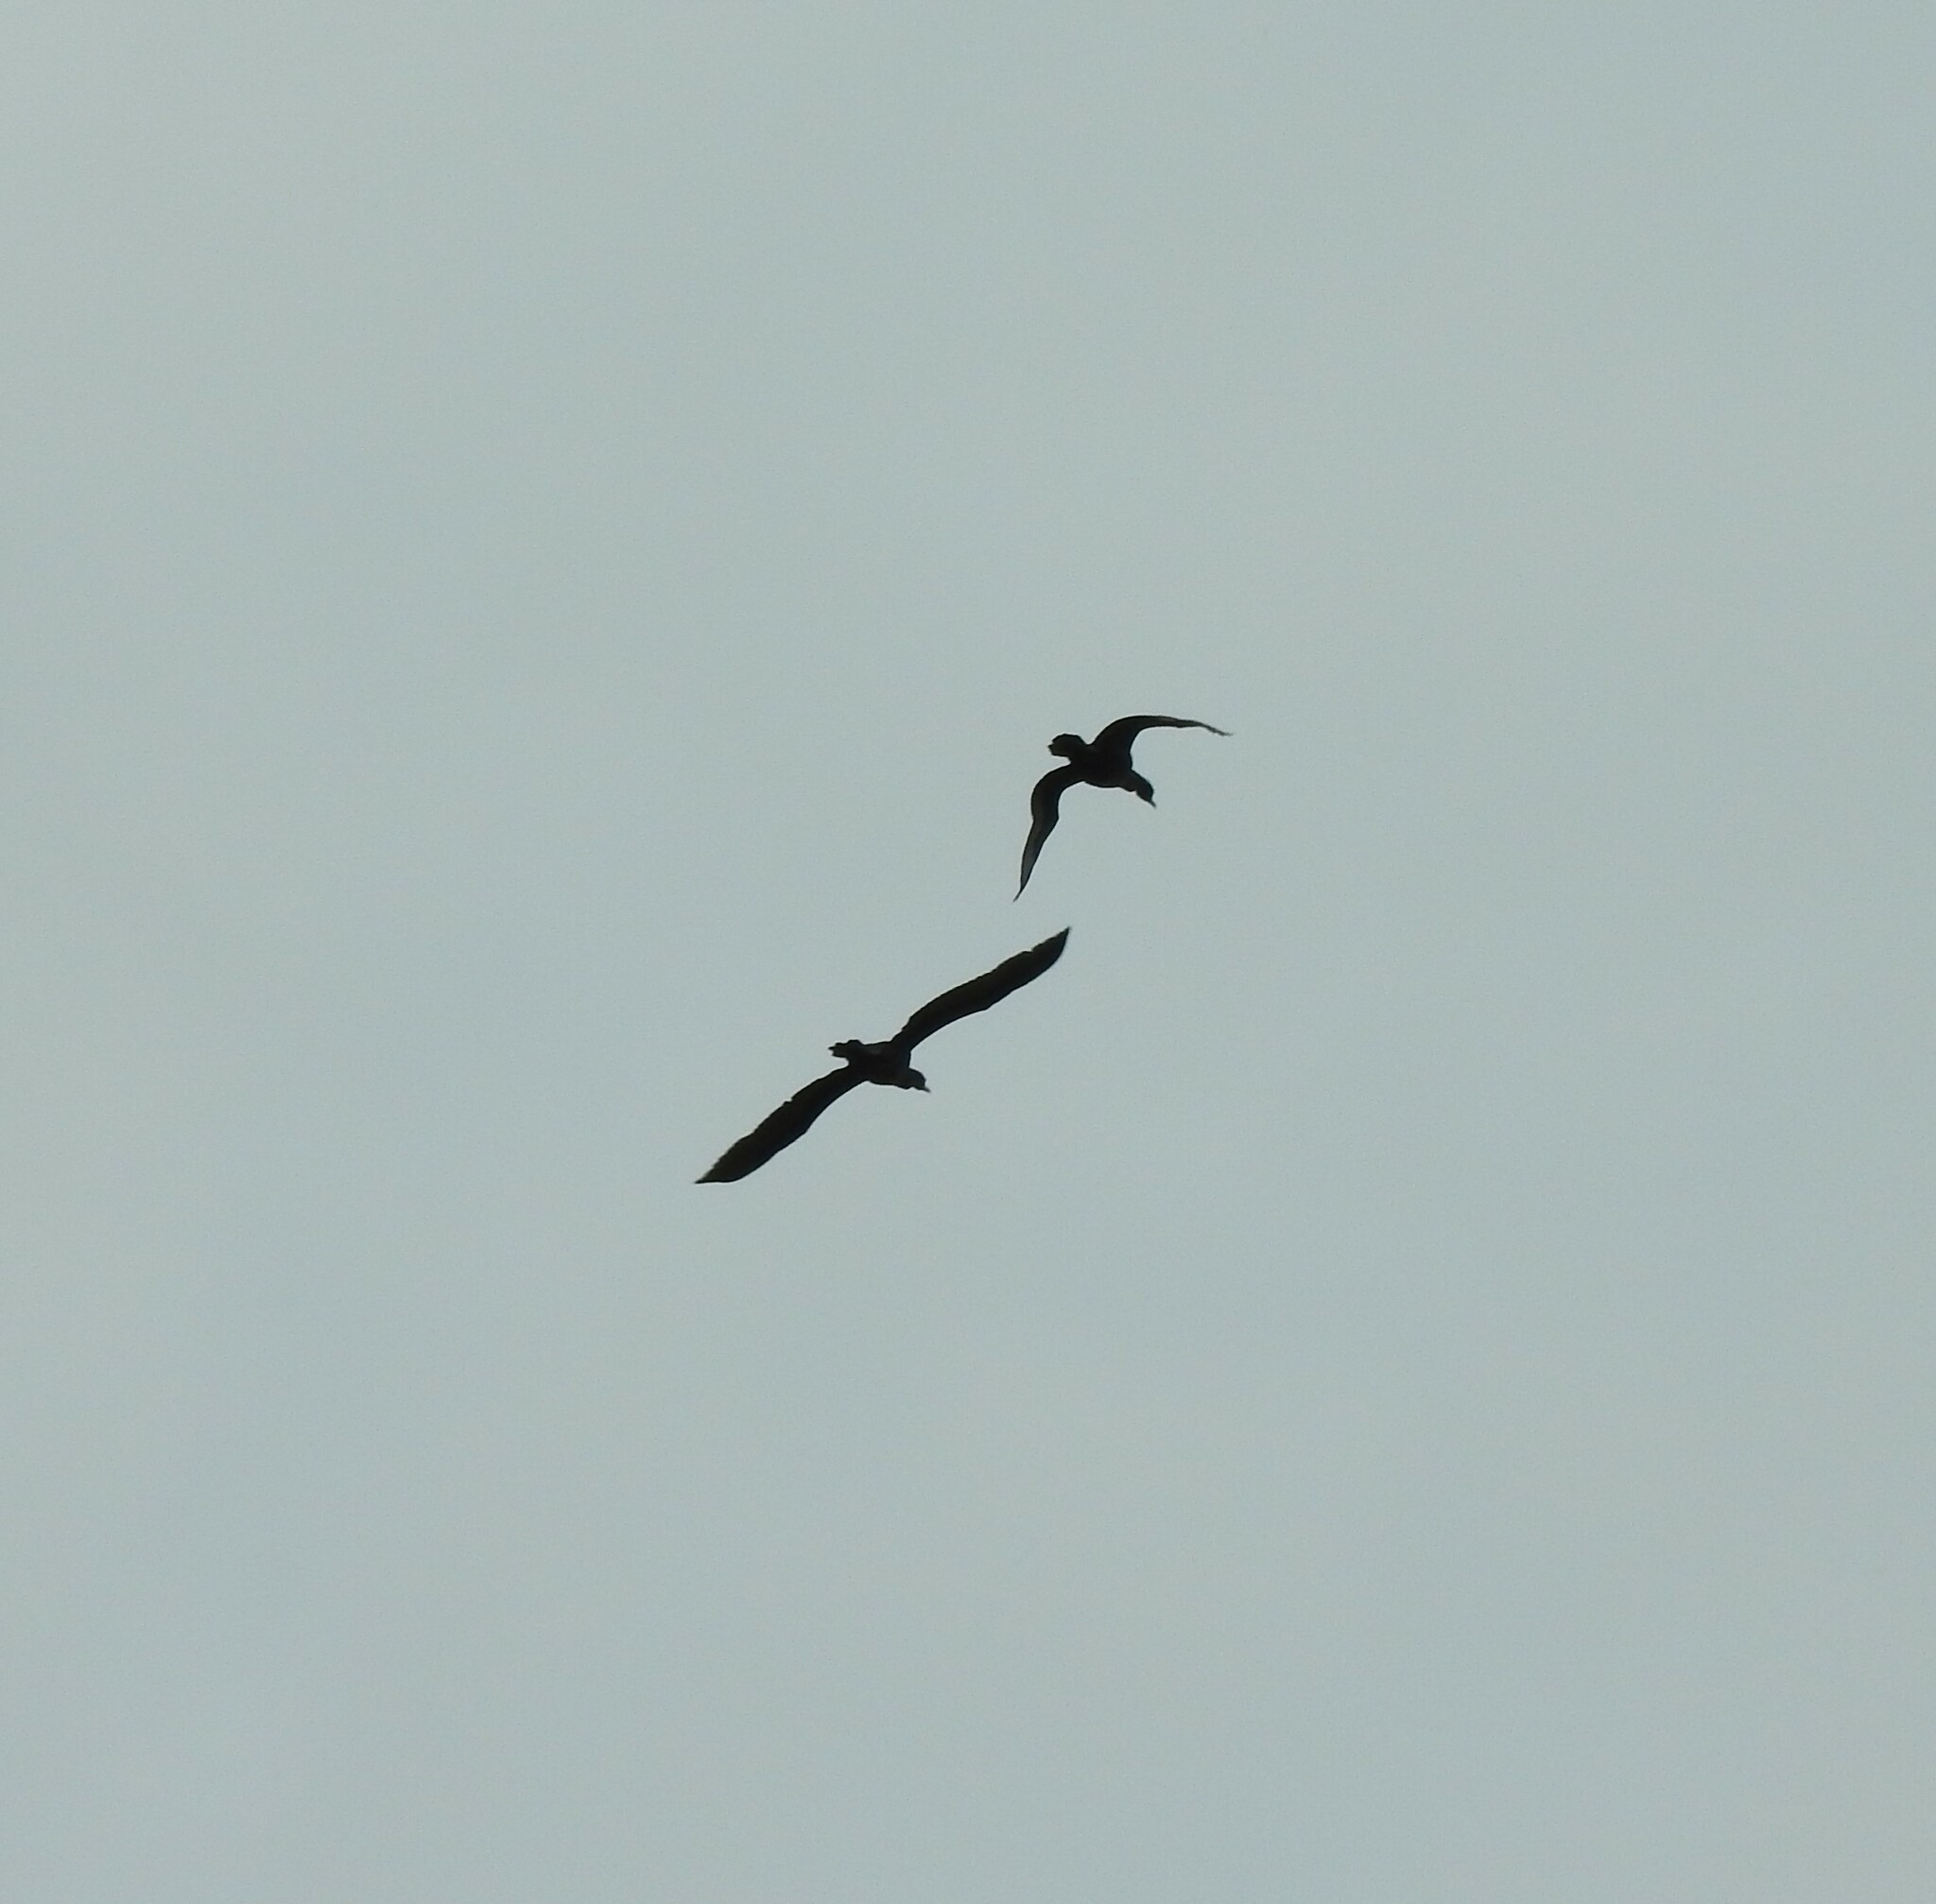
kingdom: Animalia
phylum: Chordata
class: Aves
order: Suliformes
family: Phalacrocoracidae
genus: Phalacrocorax
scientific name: Phalacrocorax brasilianus
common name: Neotropic cormorant
